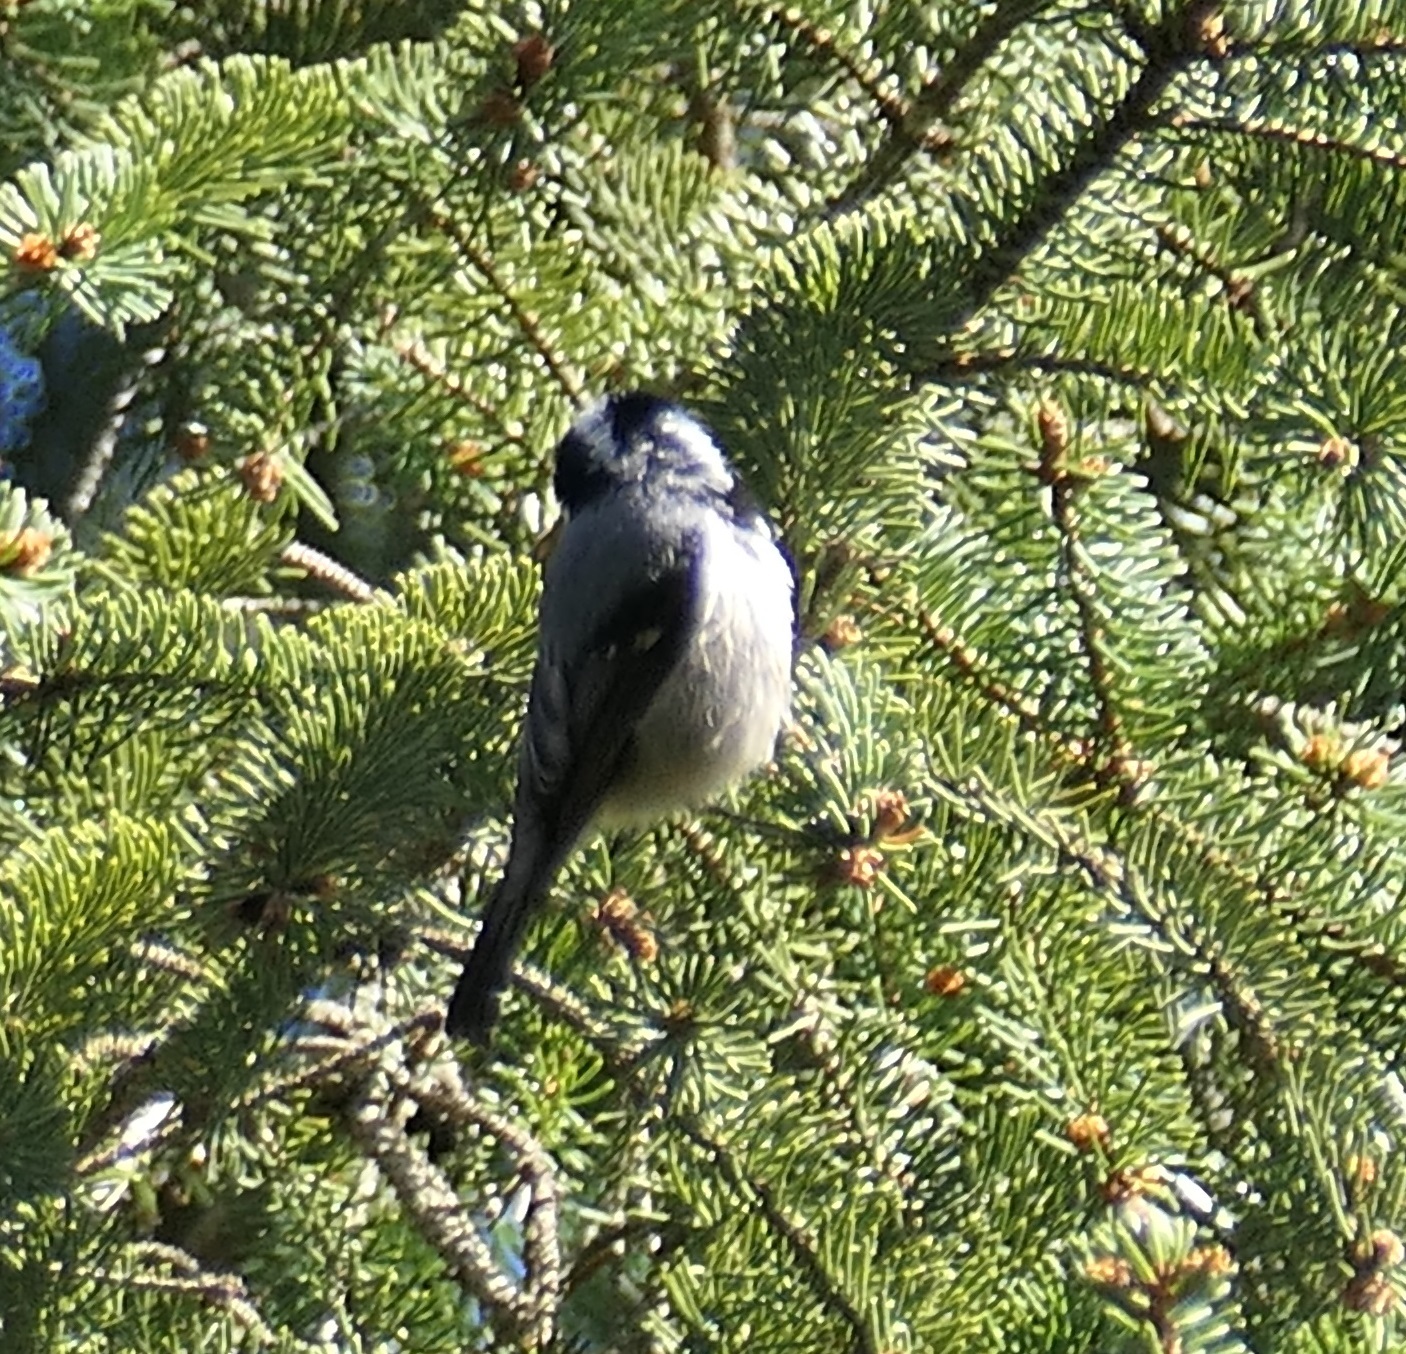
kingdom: Animalia
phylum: Chordata
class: Aves
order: Passeriformes
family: Paridae
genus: Periparus
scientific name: Periparus ater
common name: Coal tit
